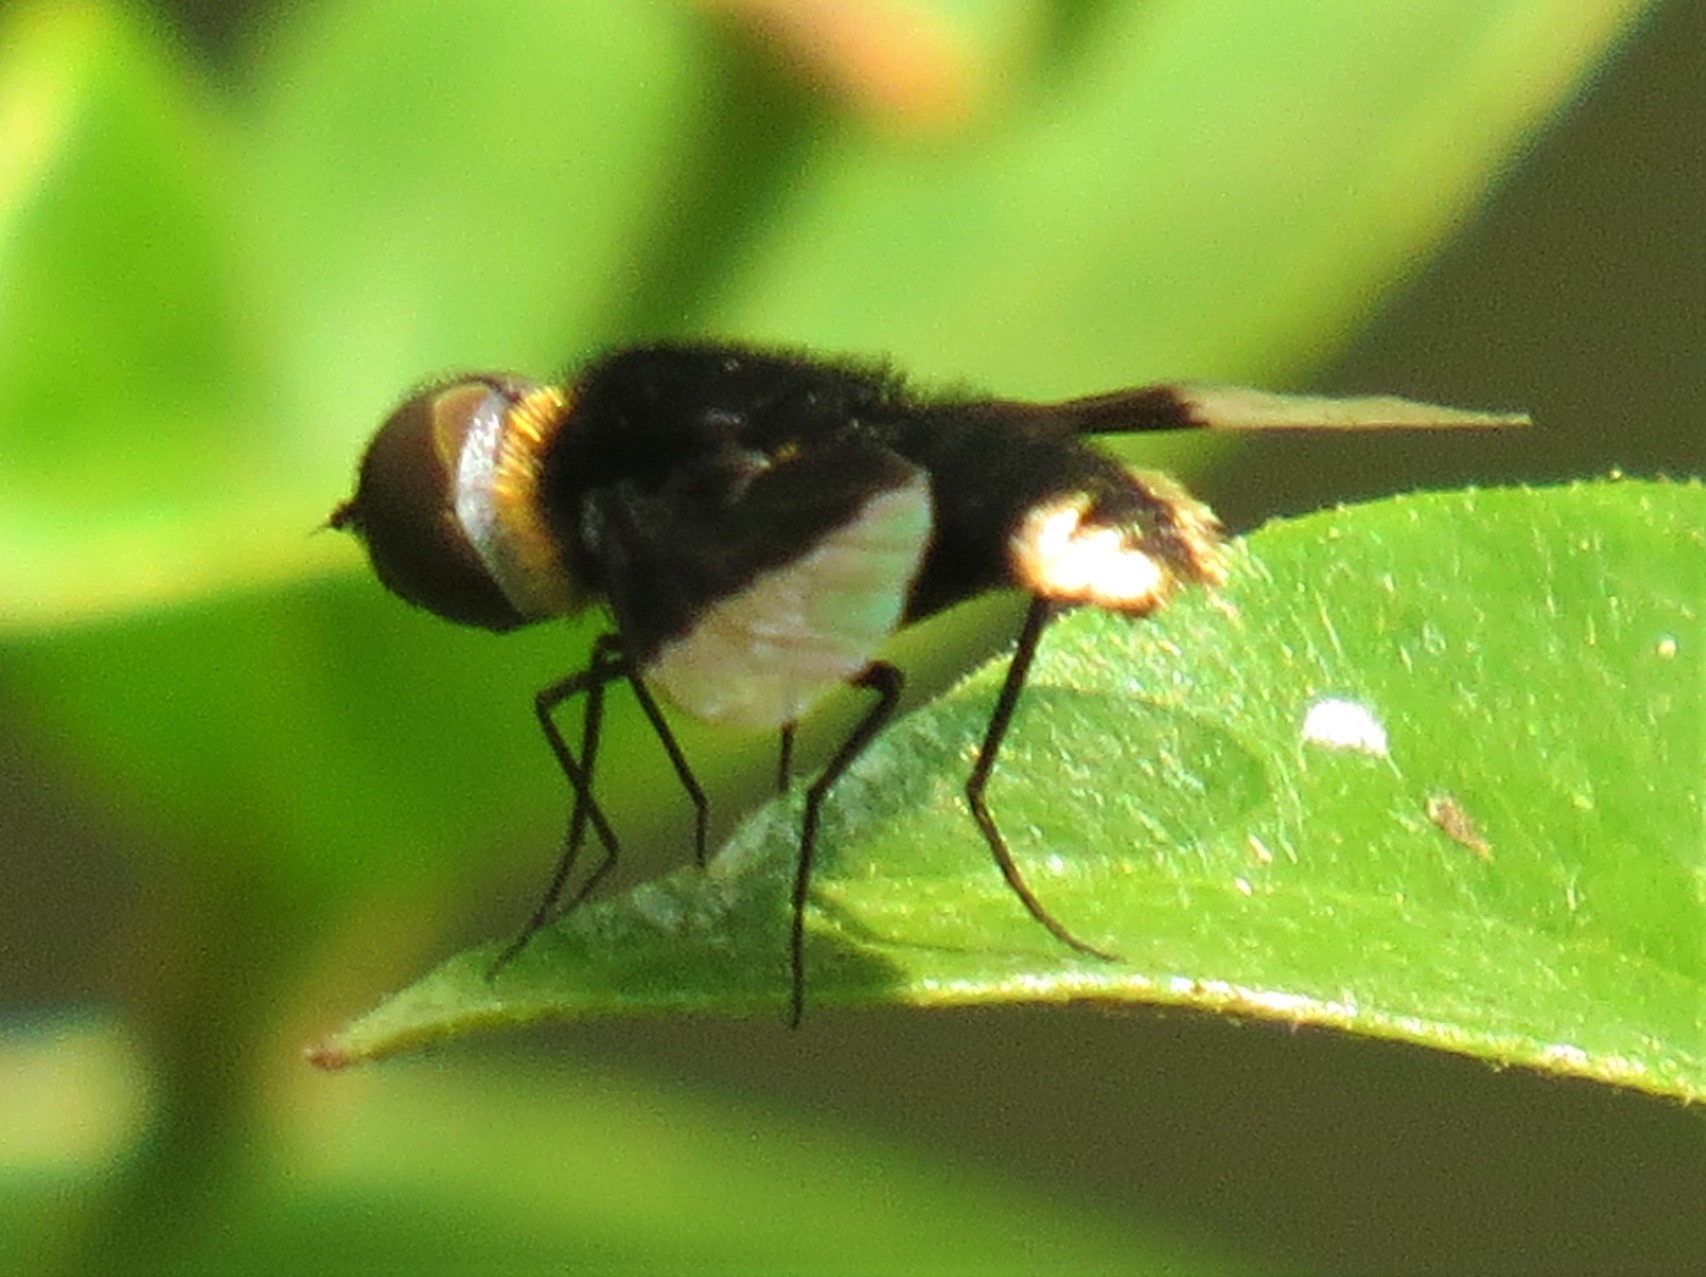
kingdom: Animalia
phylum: Arthropoda
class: Insecta
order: Diptera
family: Bombyliidae
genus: Ins
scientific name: Ins celeris
